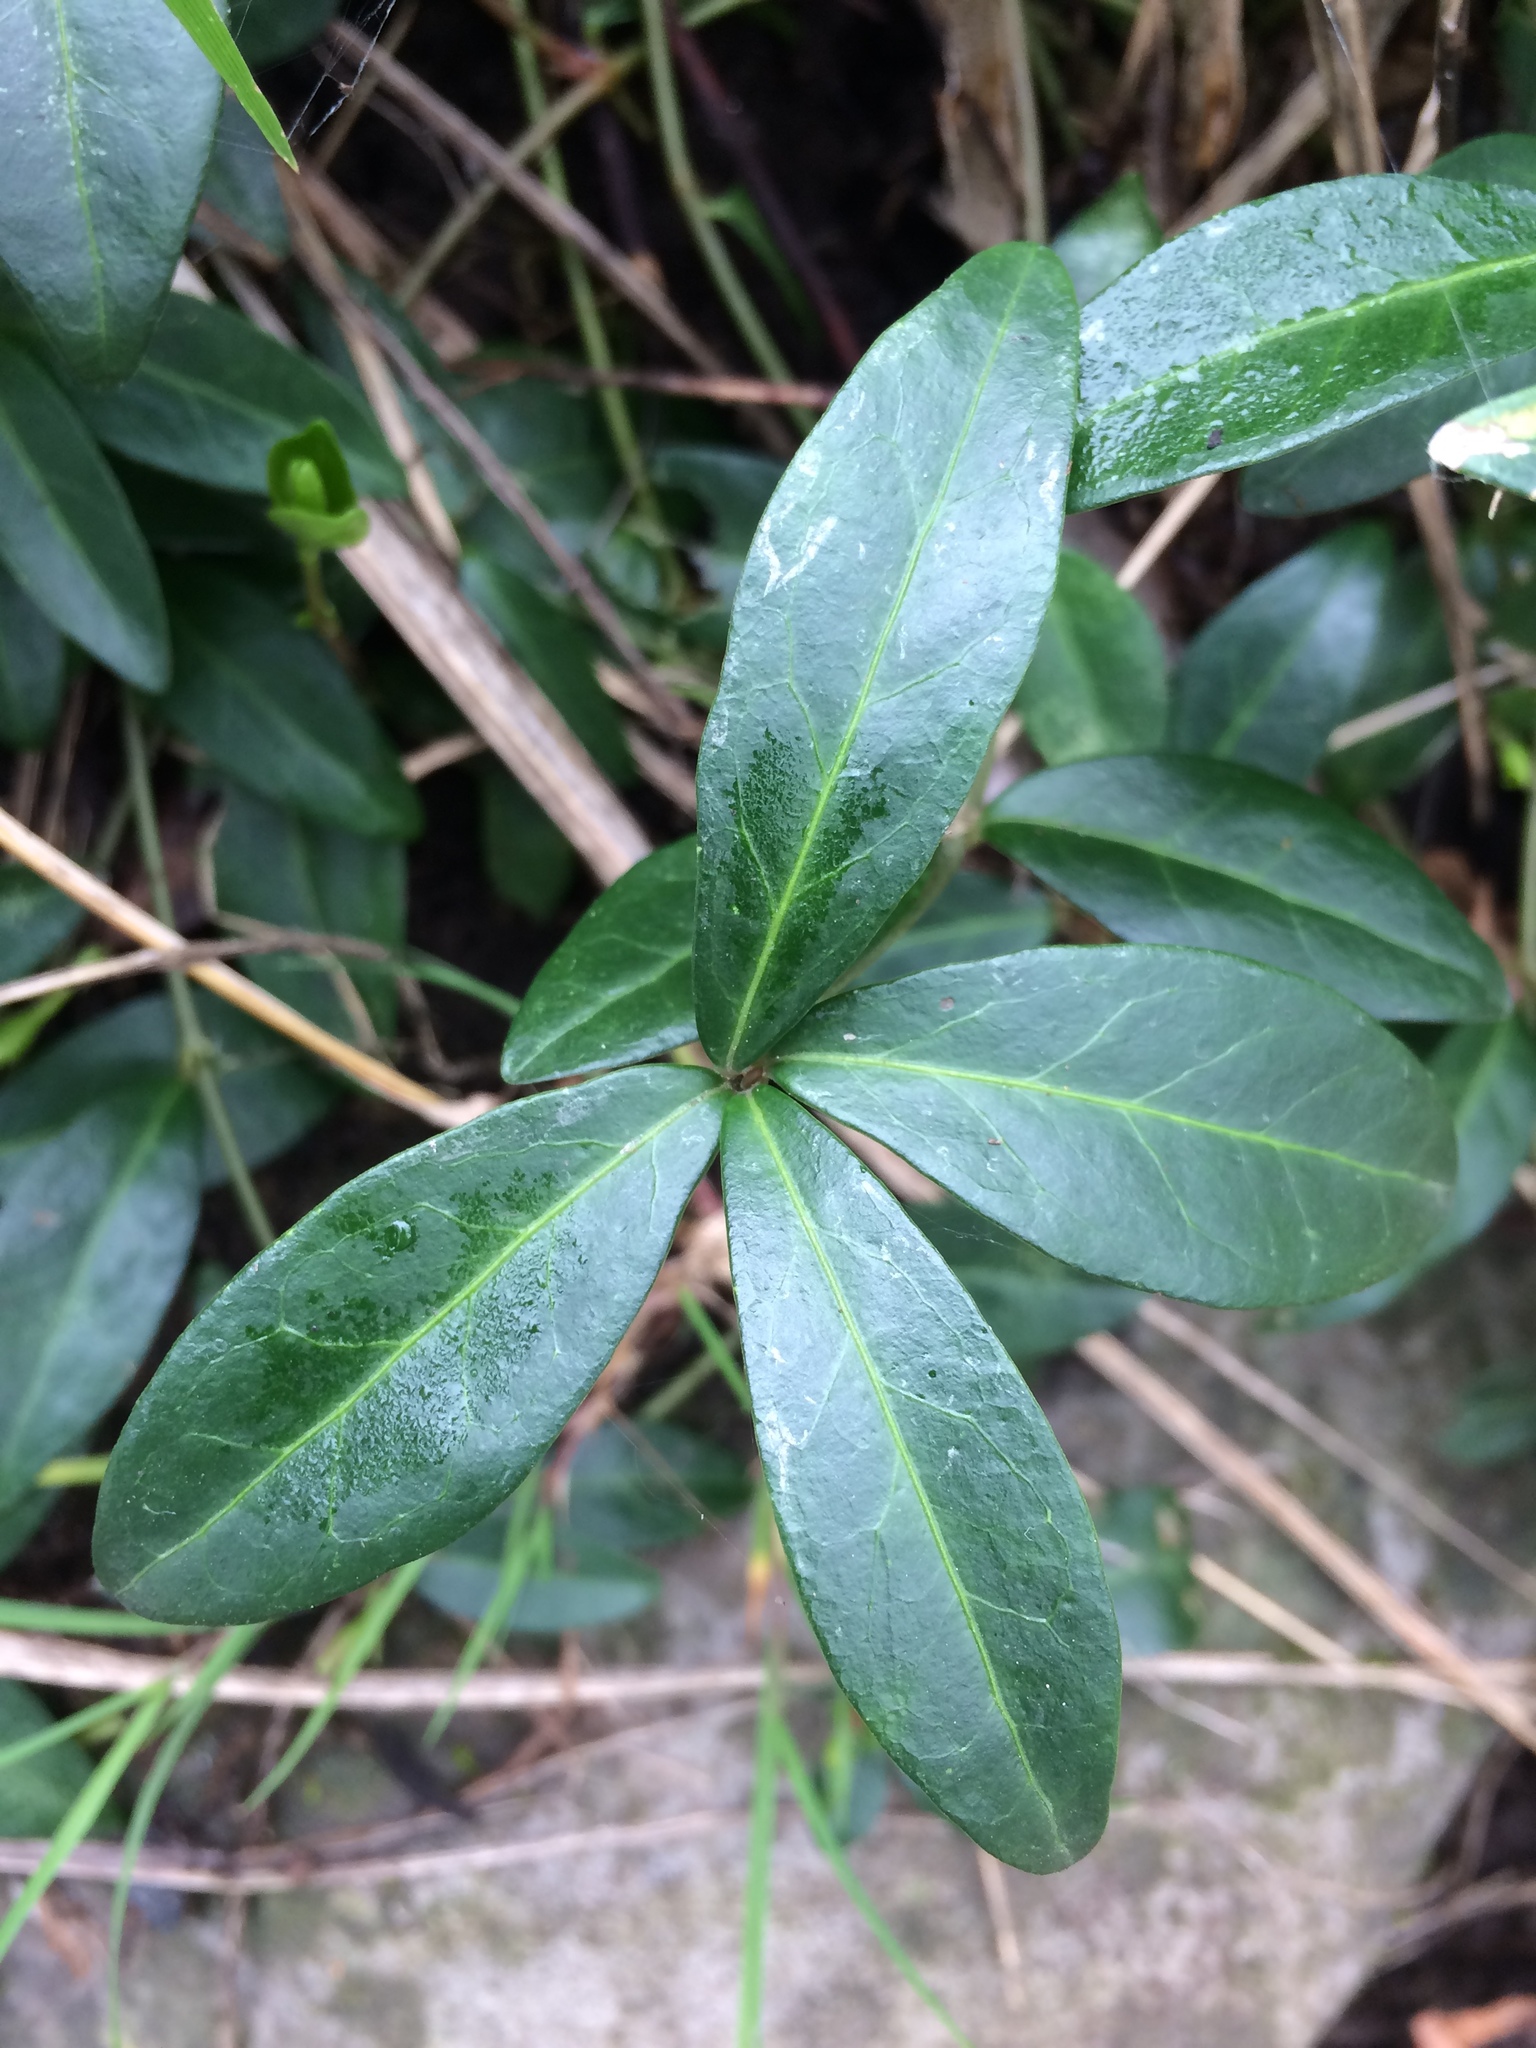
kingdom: Plantae
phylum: Tracheophyta
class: Magnoliopsida
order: Gentianales
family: Apocynaceae
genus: Vinca
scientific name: Vinca minor
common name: Lesser periwinkle
